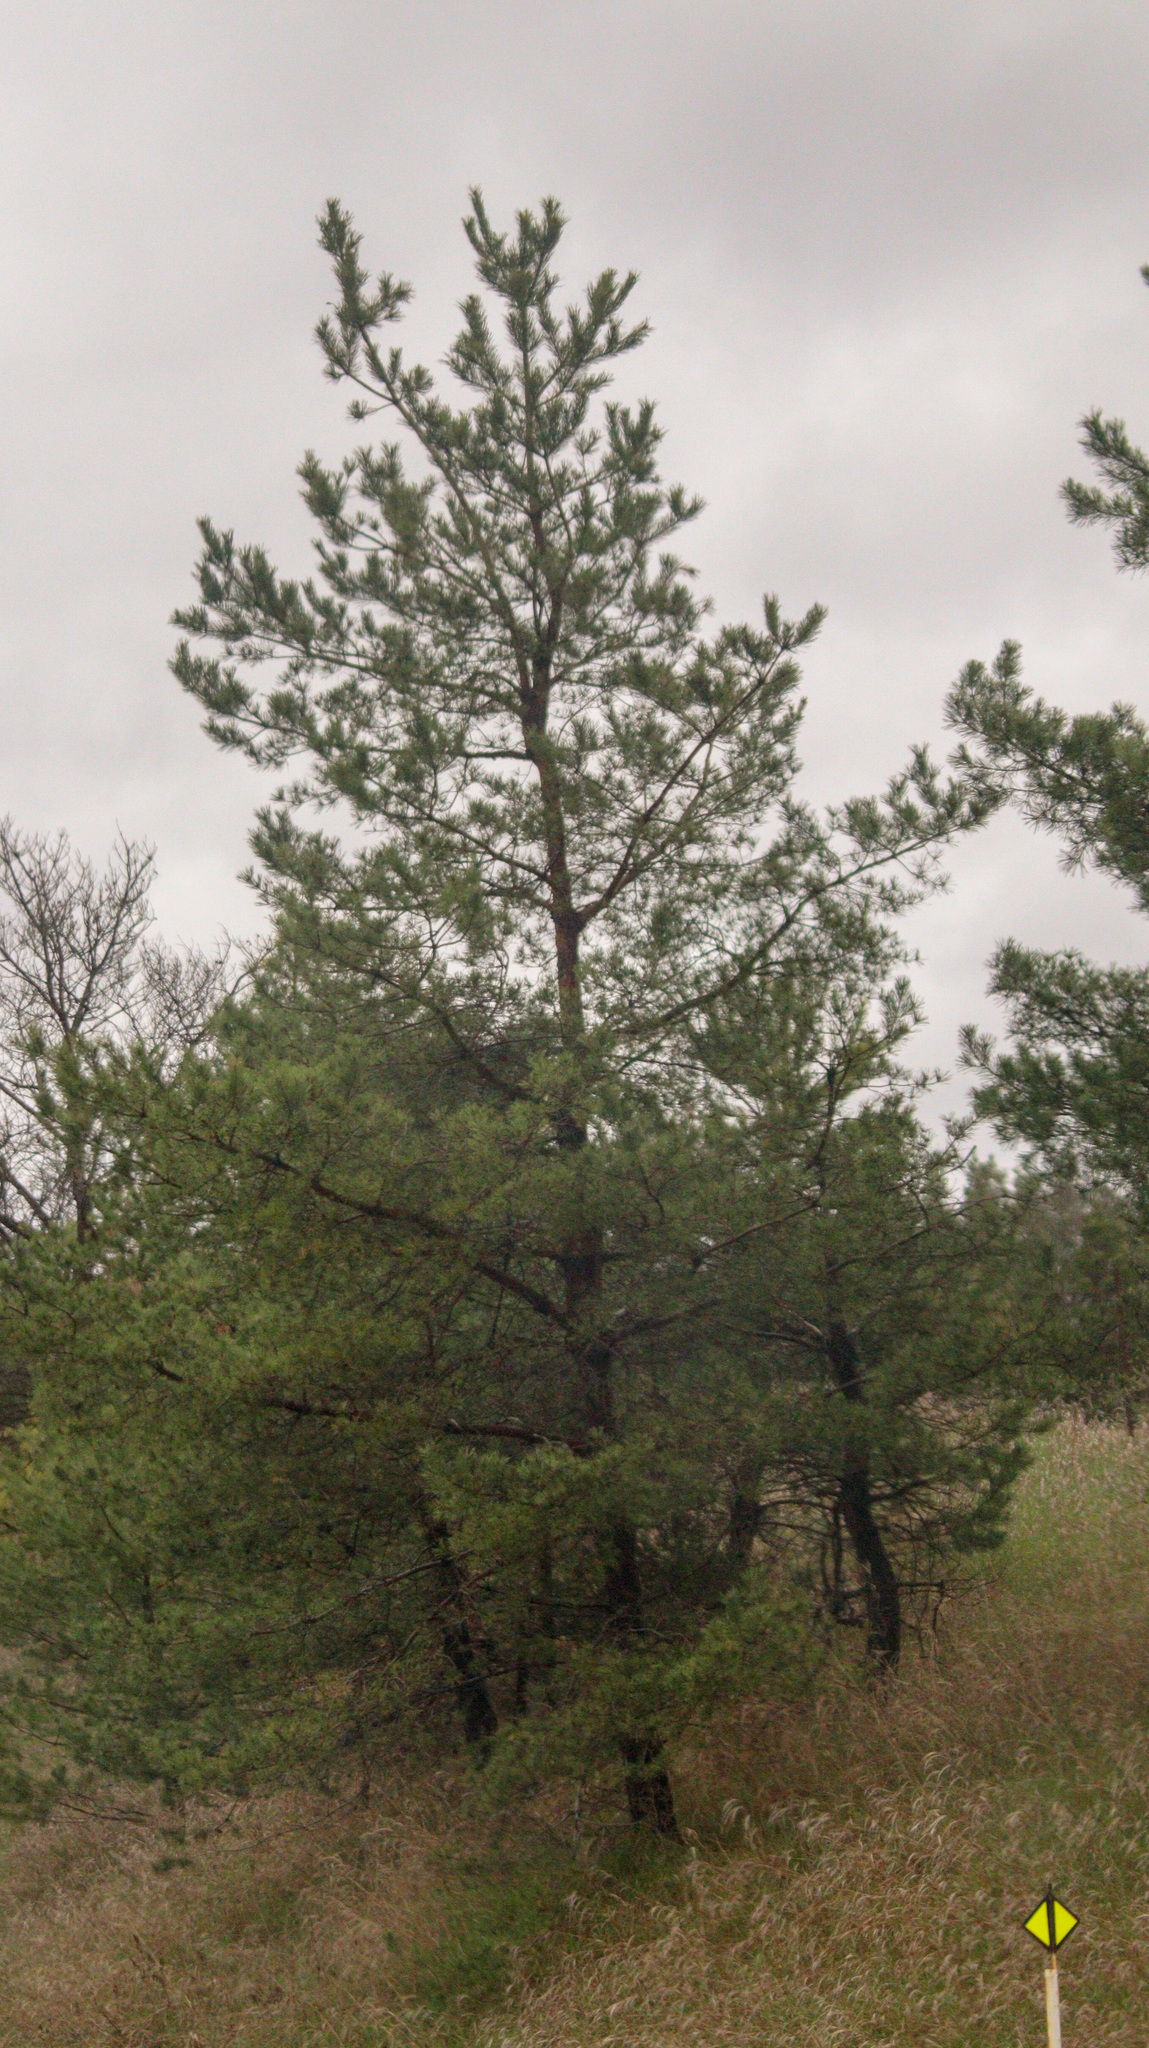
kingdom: Plantae
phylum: Tracheophyta
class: Pinopsida
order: Pinales
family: Pinaceae
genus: Pinus
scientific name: Pinus sylvestris
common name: Scots pine
